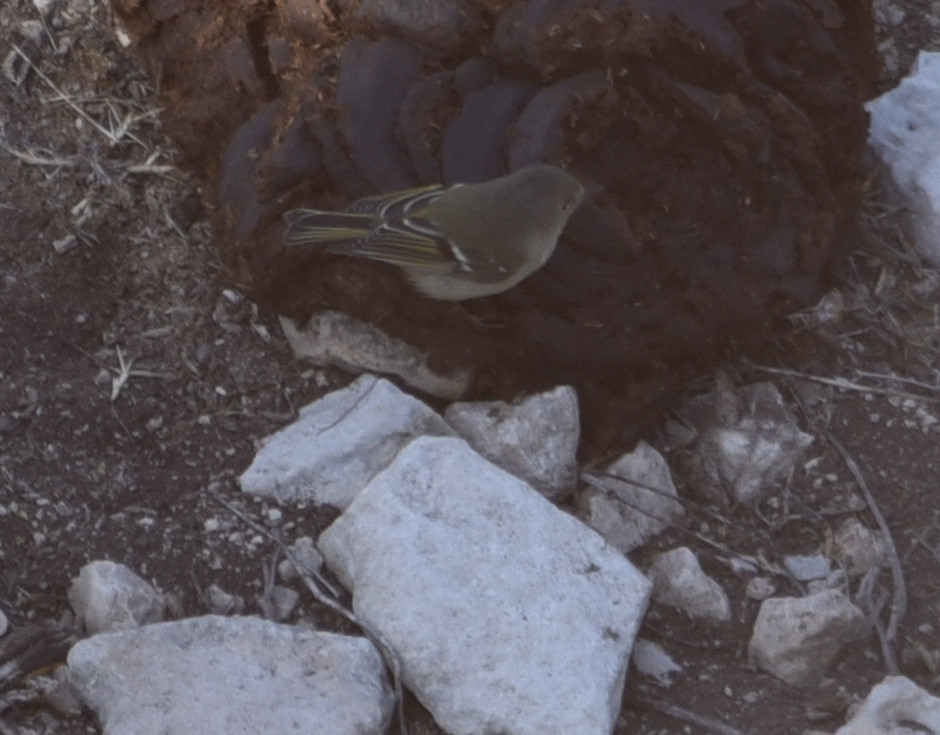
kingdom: Animalia
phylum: Chordata
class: Aves
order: Passeriformes
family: Regulidae
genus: Regulus
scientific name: Regulus calendula
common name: Ruby-crowned kinglet
